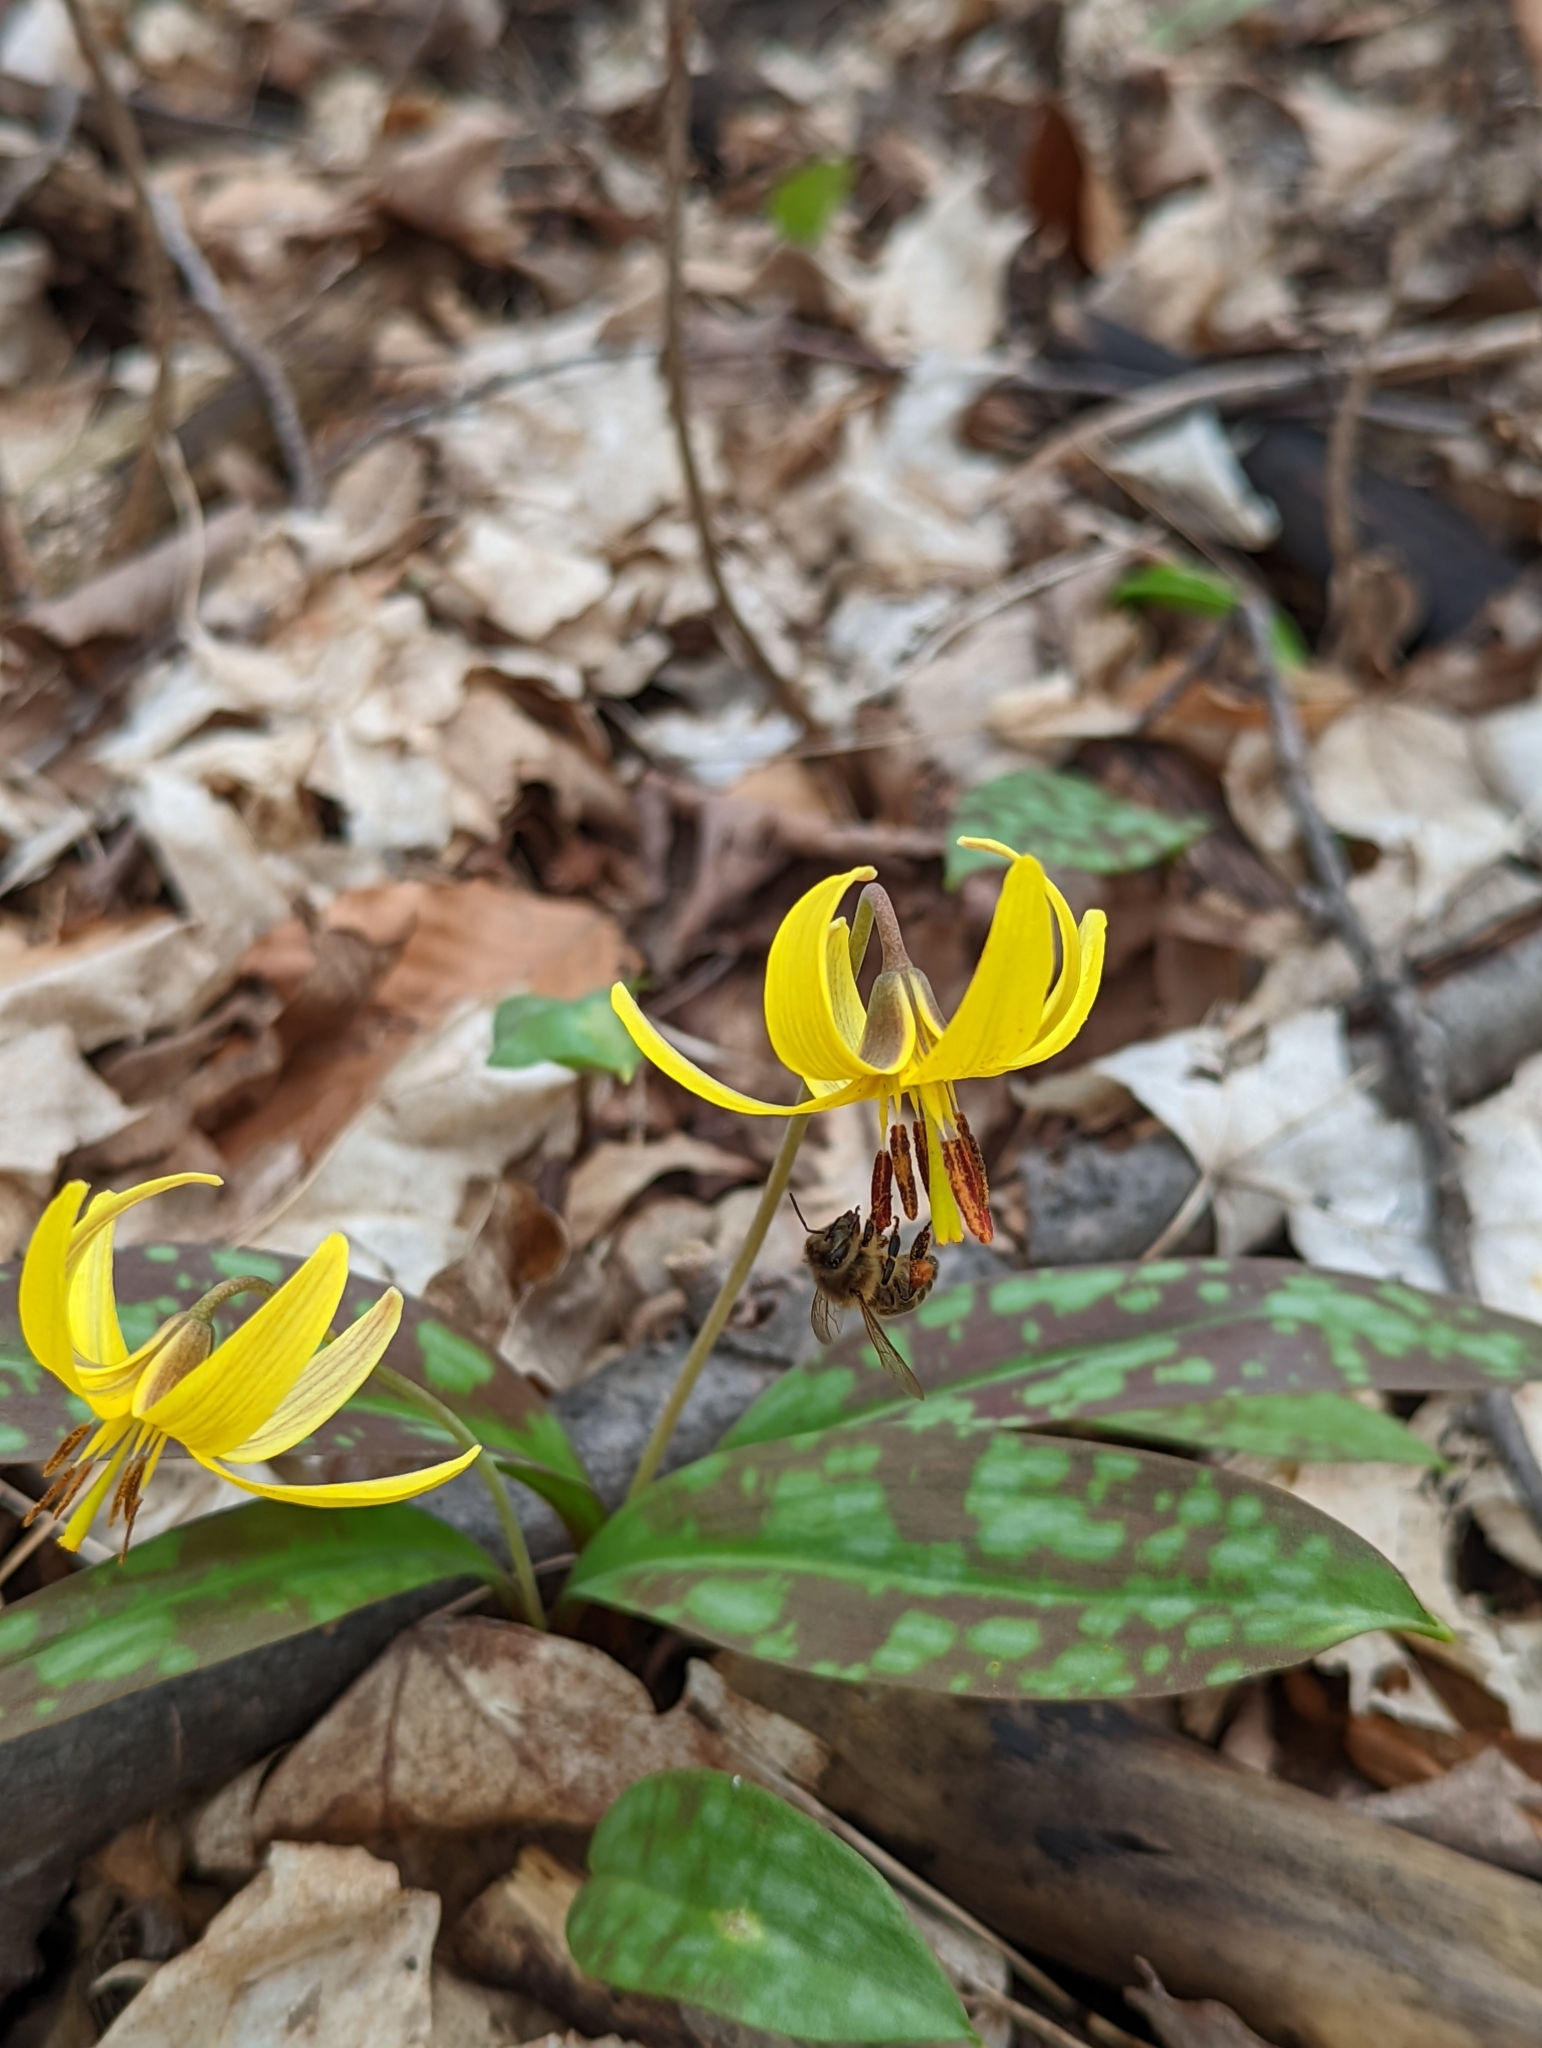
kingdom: Plantae
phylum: Tracheophyta
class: Liliopsida
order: Liliales
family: Liliaceae
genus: Erythronium
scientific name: Erythronium americanum
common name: Yellow adder's-tongue
